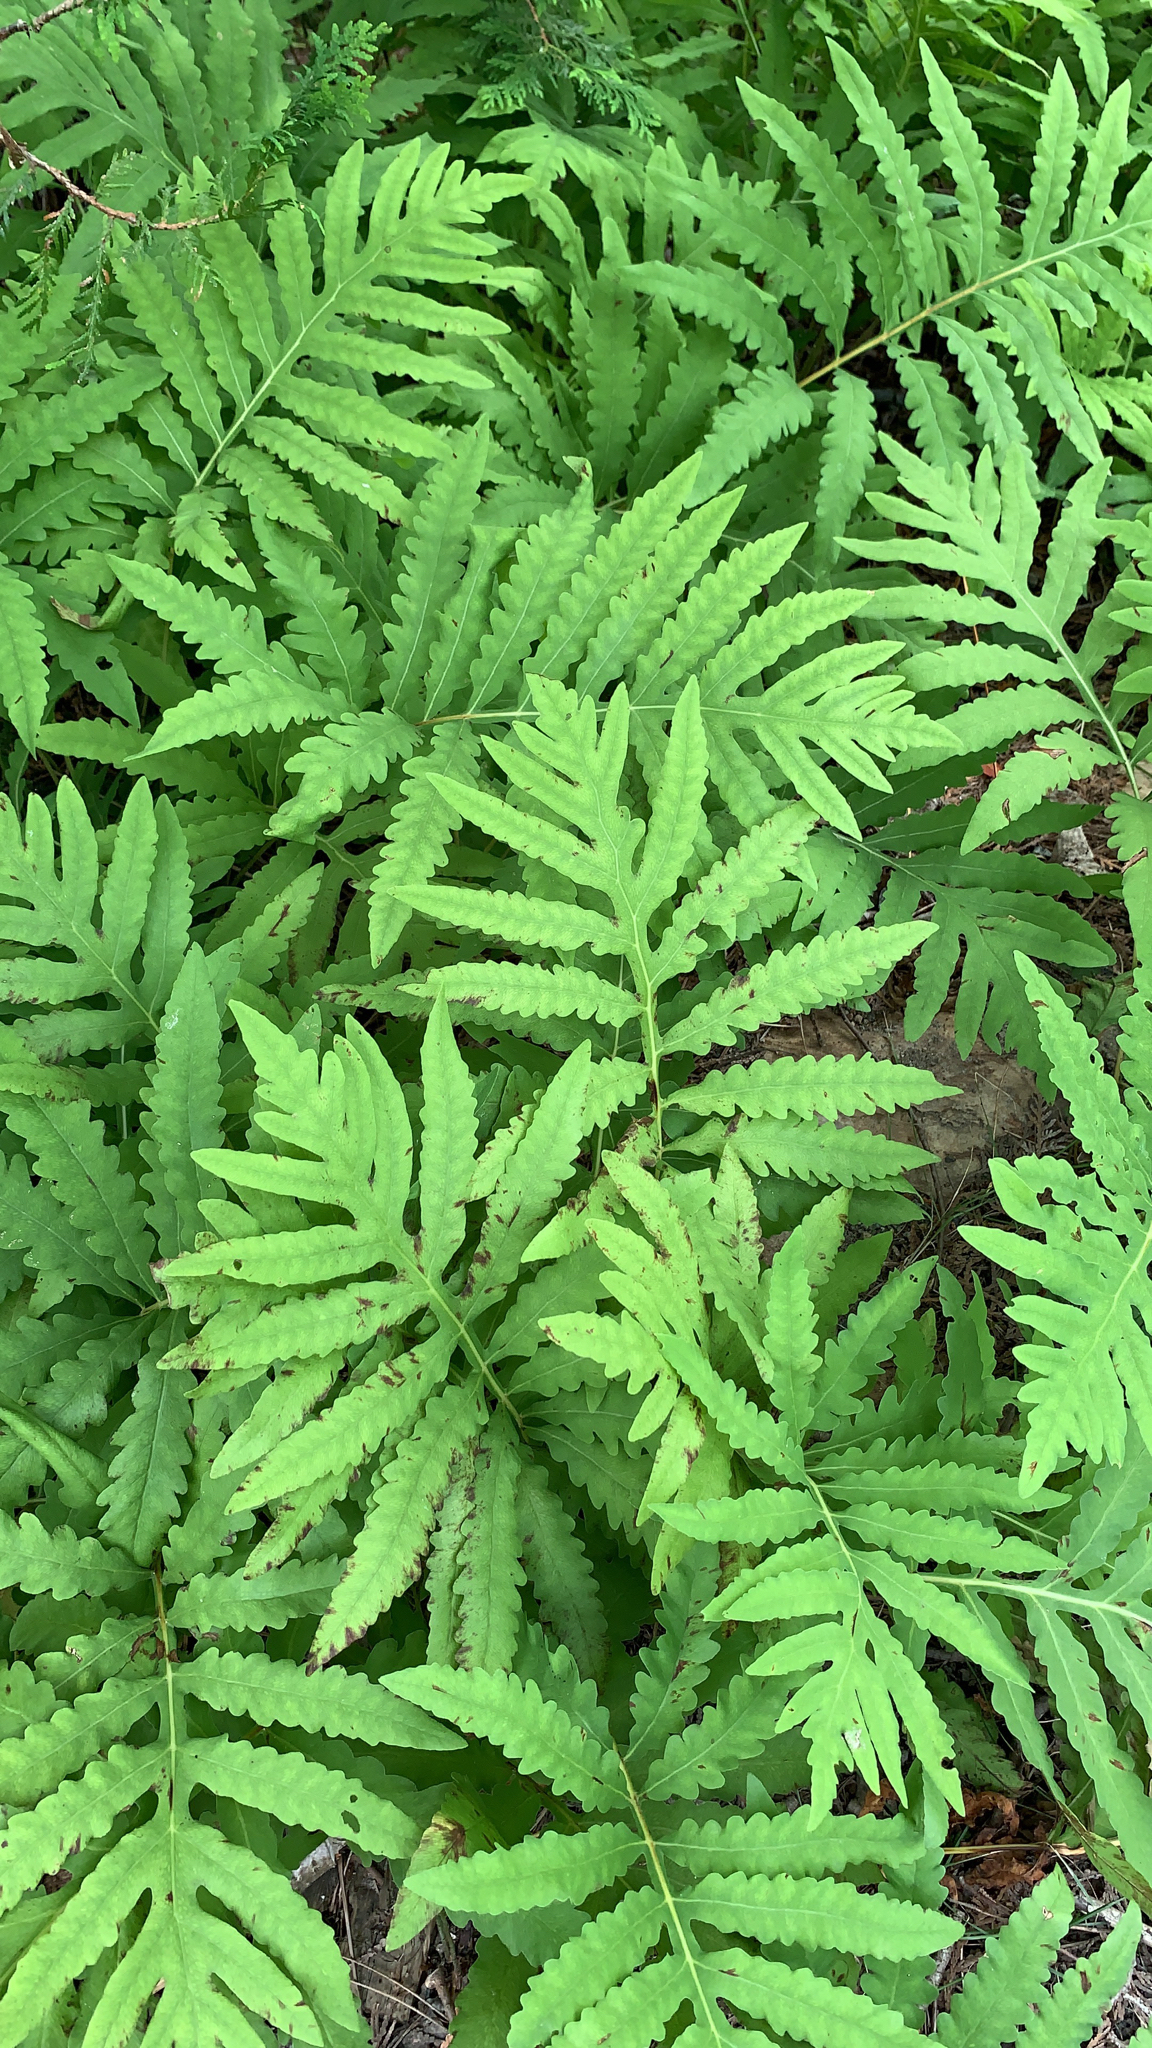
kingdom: Plantae
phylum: Tracheophyta
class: Polypodiopsida
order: Polypodiales
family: Onocleaceae
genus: Onoclea
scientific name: Onoclea sensibilis
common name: Sensitive fern
